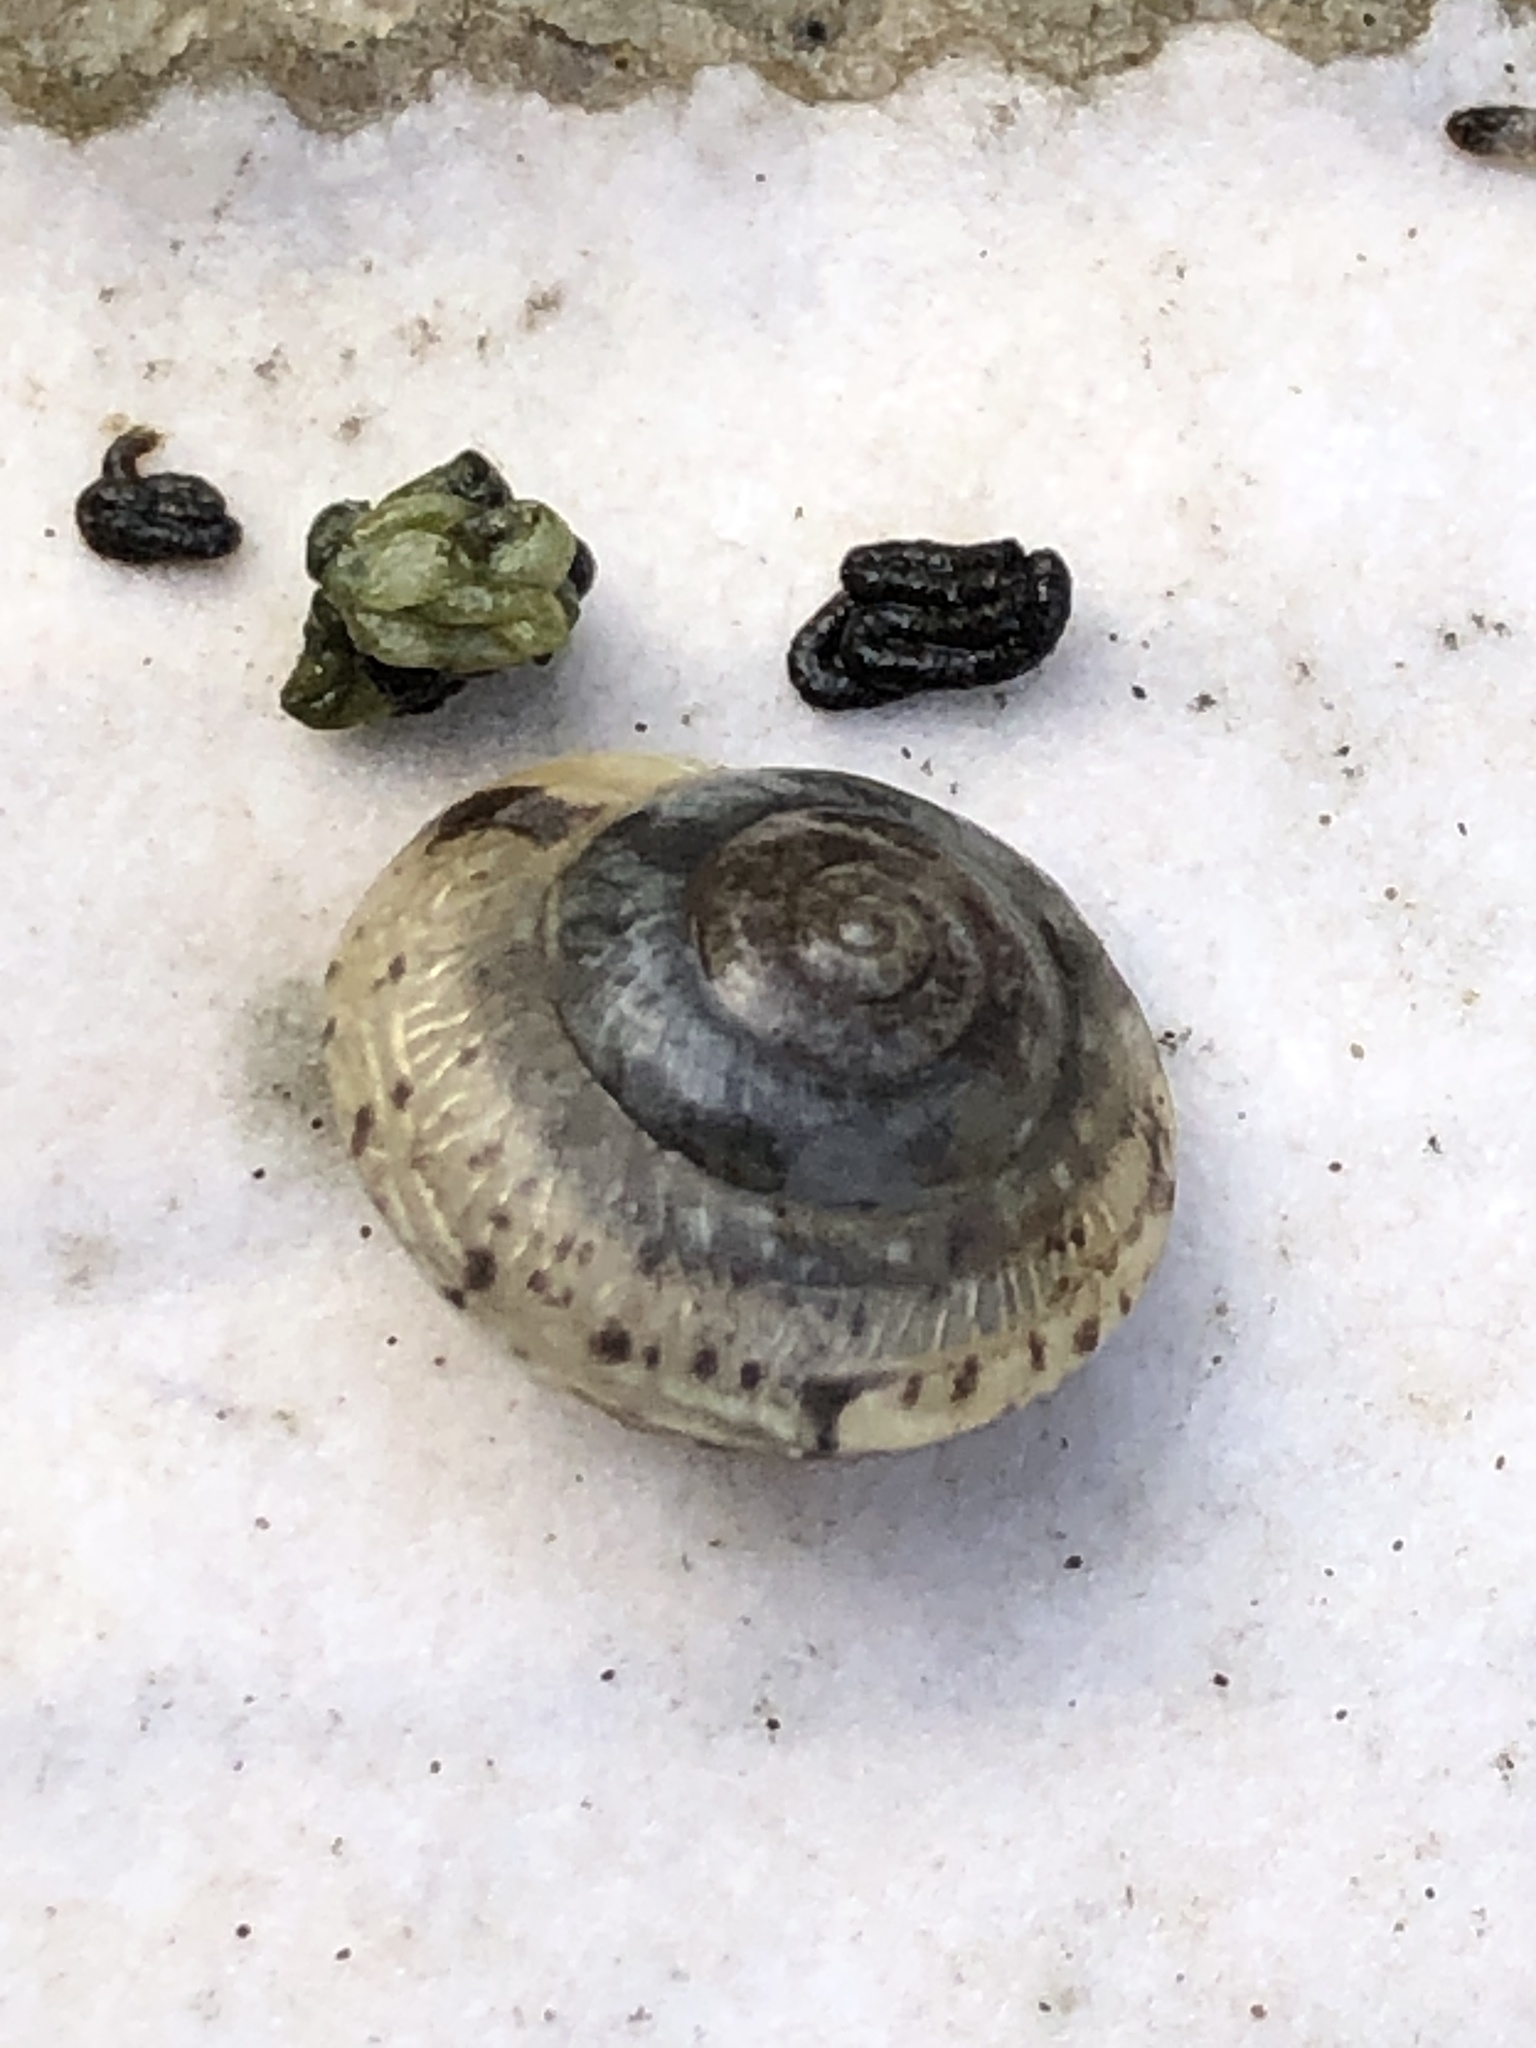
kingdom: Animalia
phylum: Mollusca
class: Gastropoda
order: Stylommatophora
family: Hygromiidae
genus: Hygromia
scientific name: Hygromia cinctella
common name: Girdled snail
